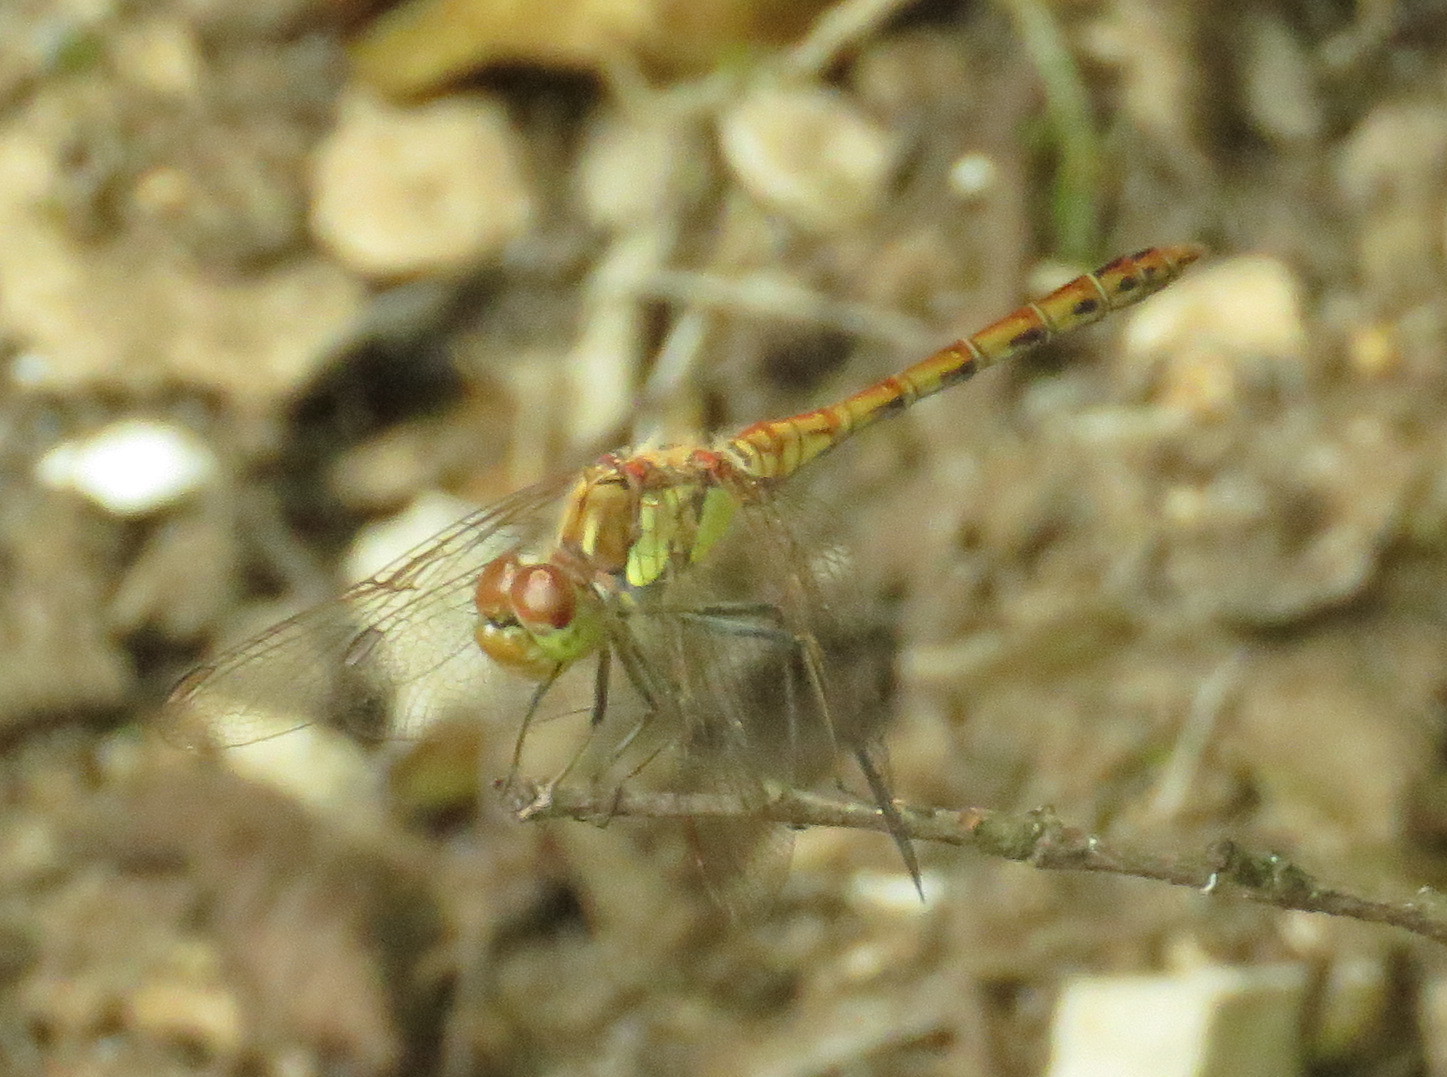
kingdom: Animalia
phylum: Arthropoda
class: Insecta
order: Odonata
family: Libellulidae
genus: Sympetrum
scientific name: Sympetrum striolatum
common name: Common darter
